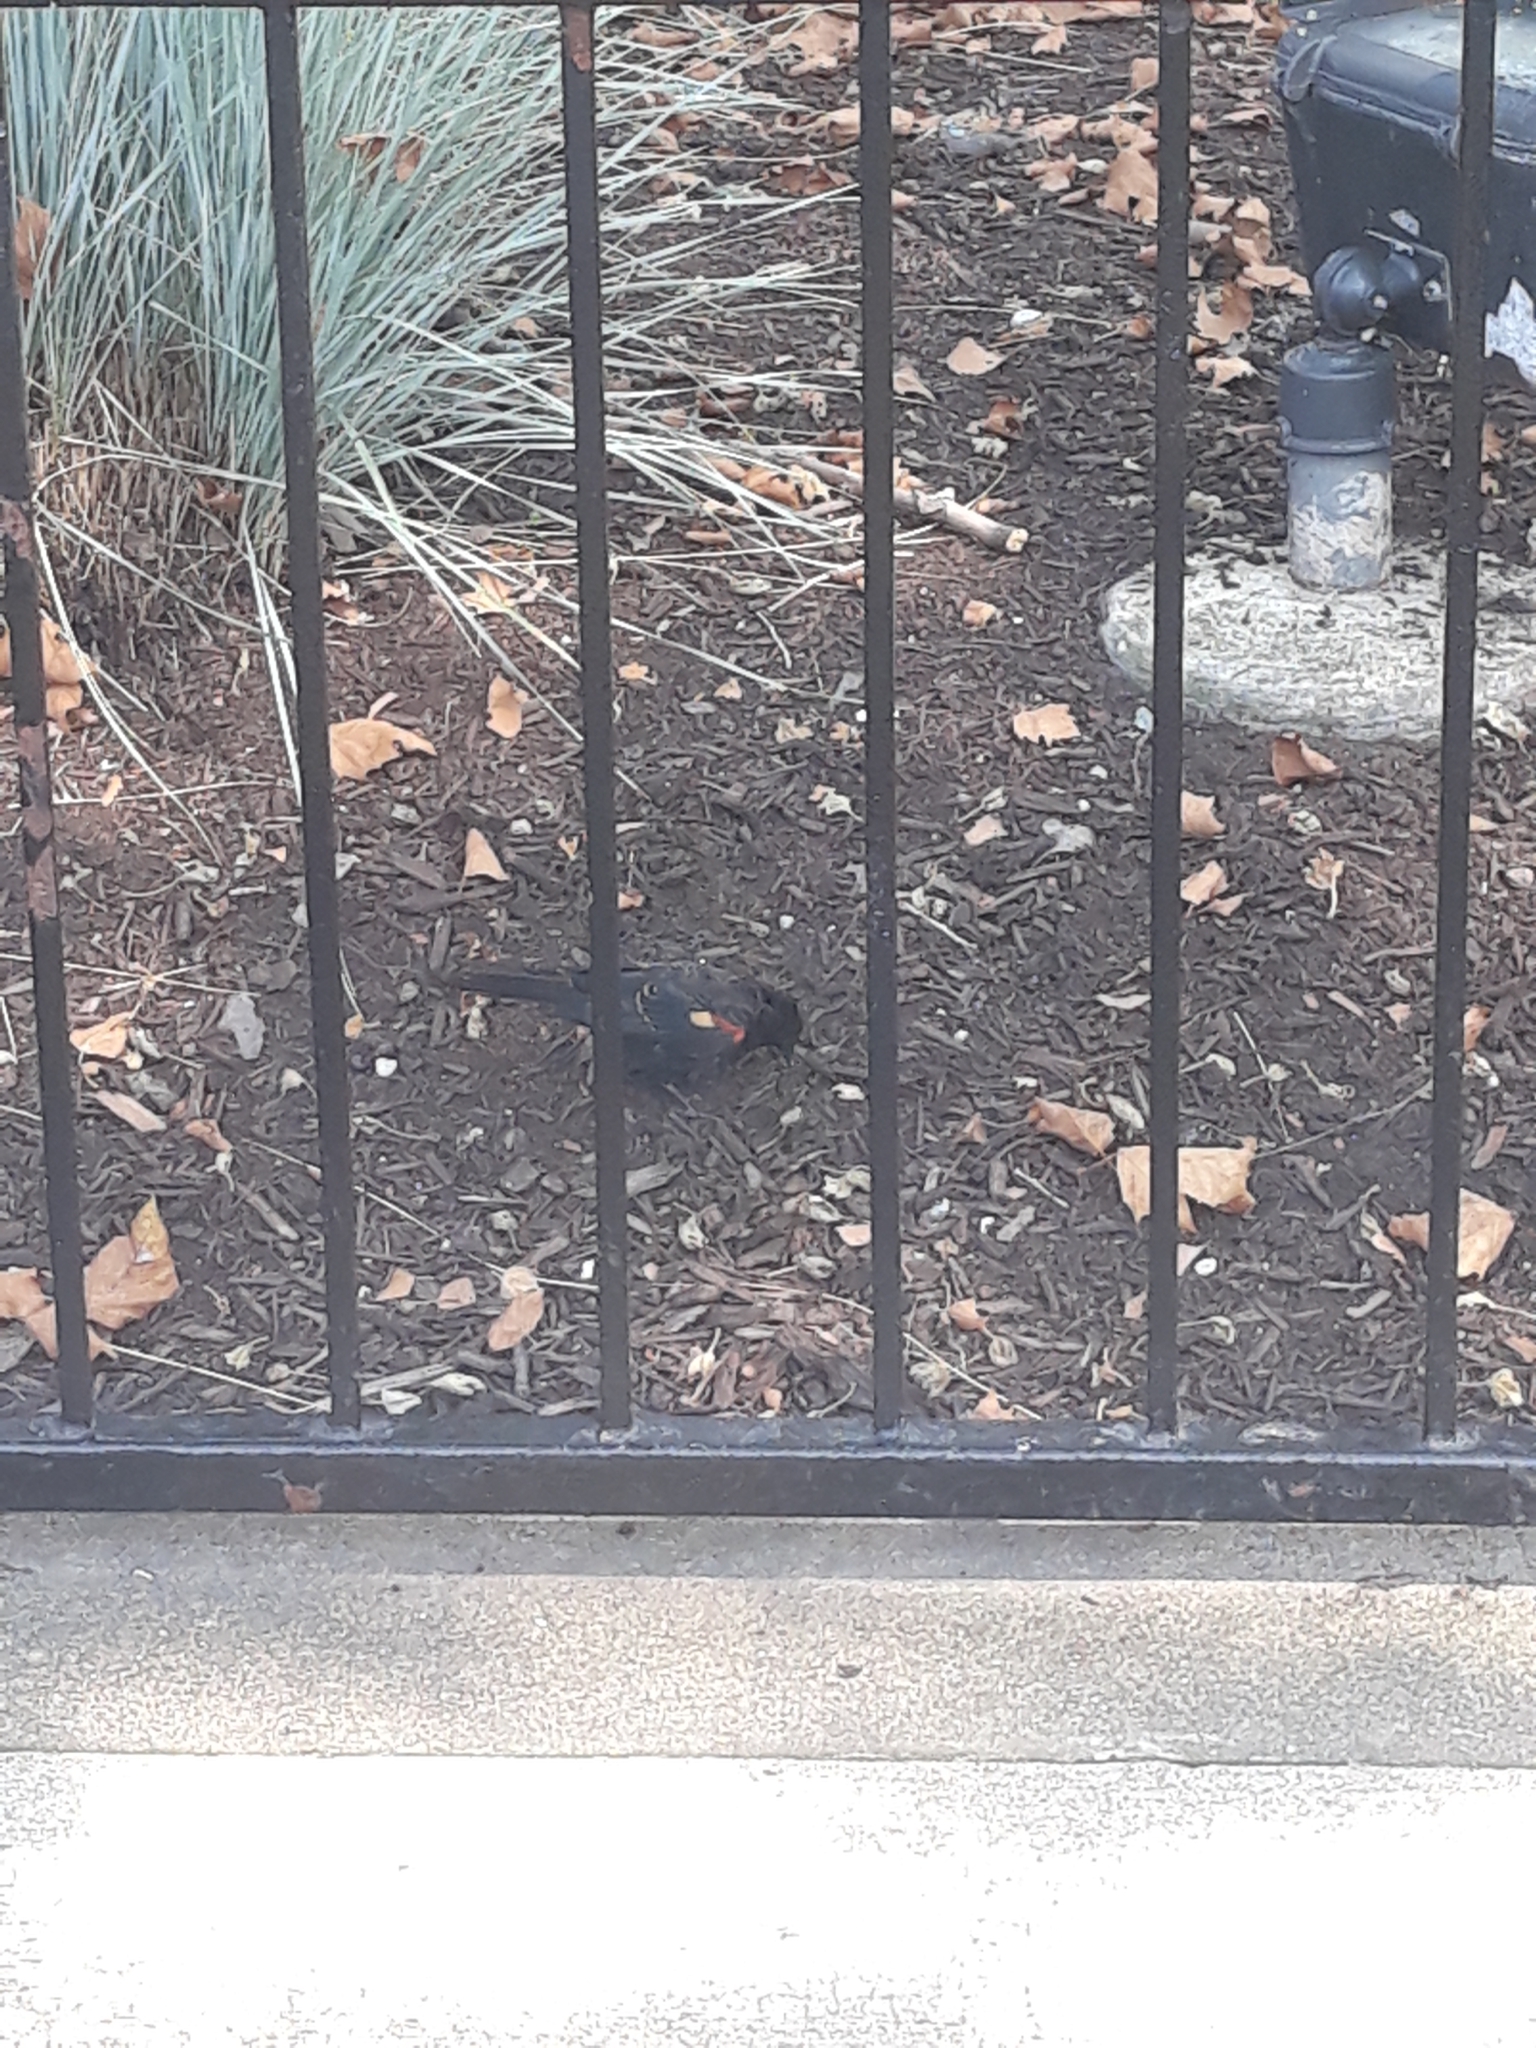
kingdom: Animalia
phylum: Chordata
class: Aves
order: Passeriformes
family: Icteridae
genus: Agelaius
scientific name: Agelaius phoeniceus
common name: Red-winged blackbird
